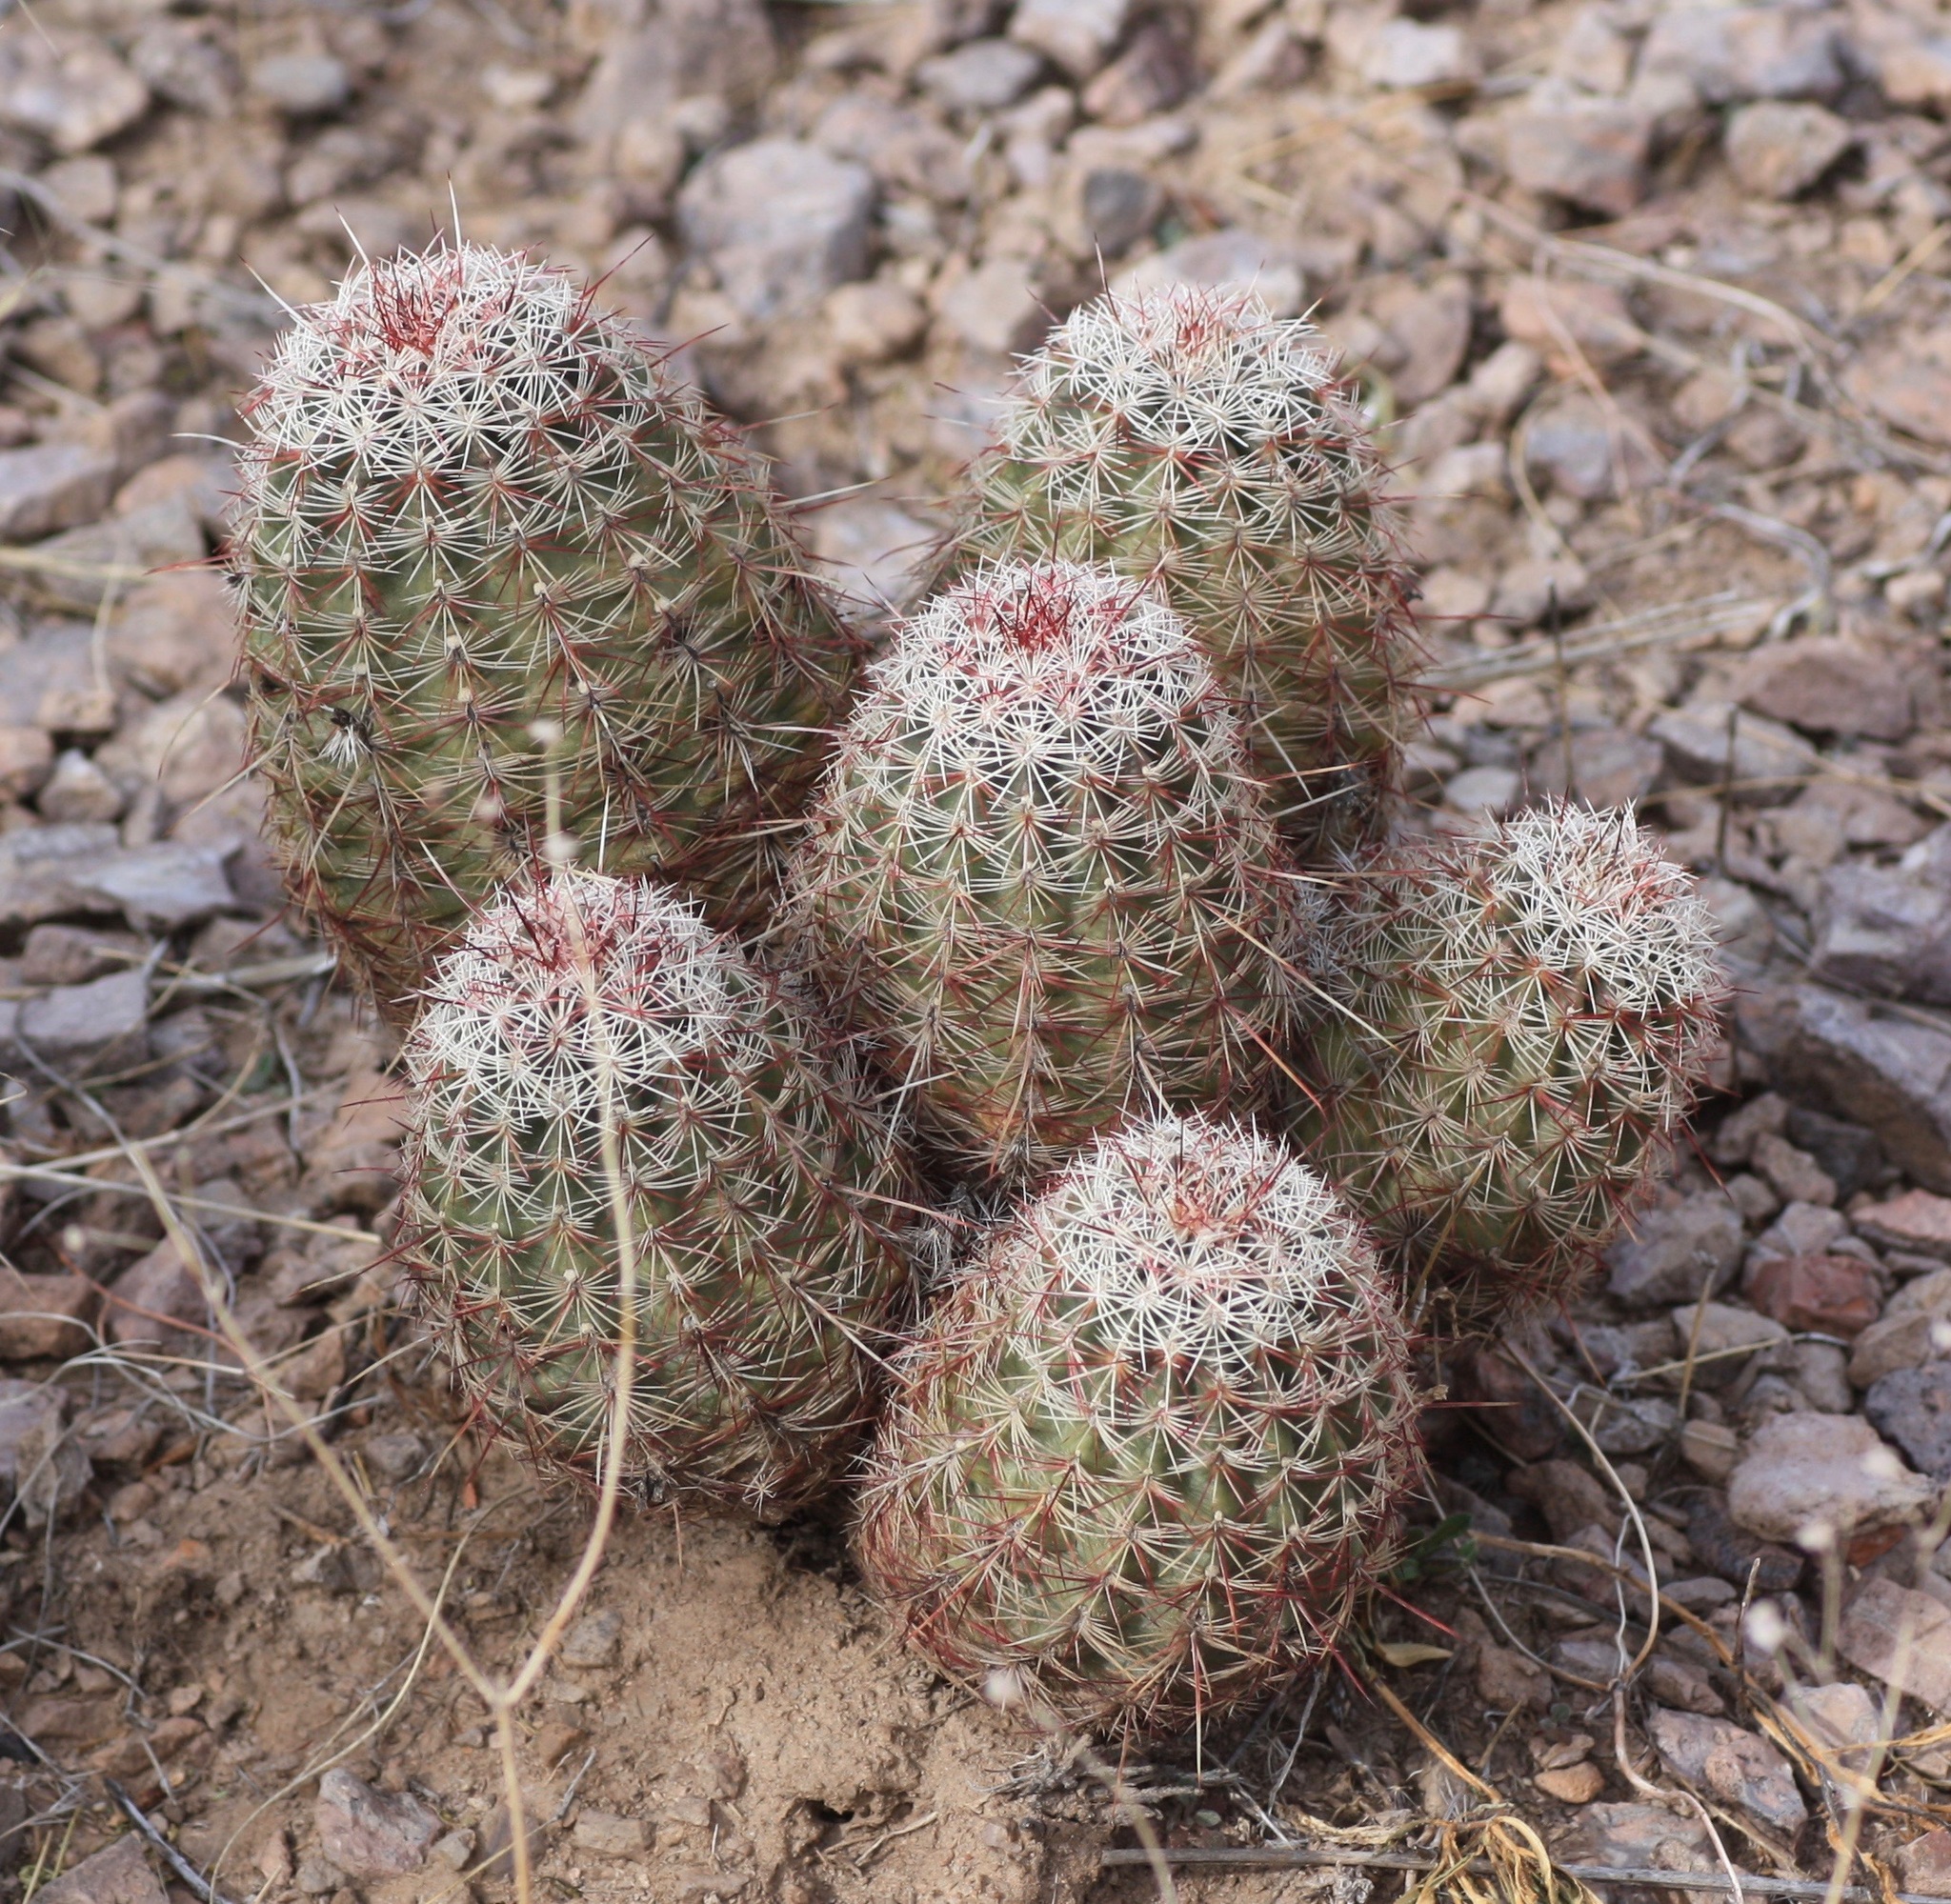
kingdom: Plantae
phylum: Tracheophyta
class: Magnoliopsida
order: Caryophyllales
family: Cactaceae
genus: Echinocereus
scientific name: Echinocereus viridiflorus
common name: Nylon hedgehog cactus
